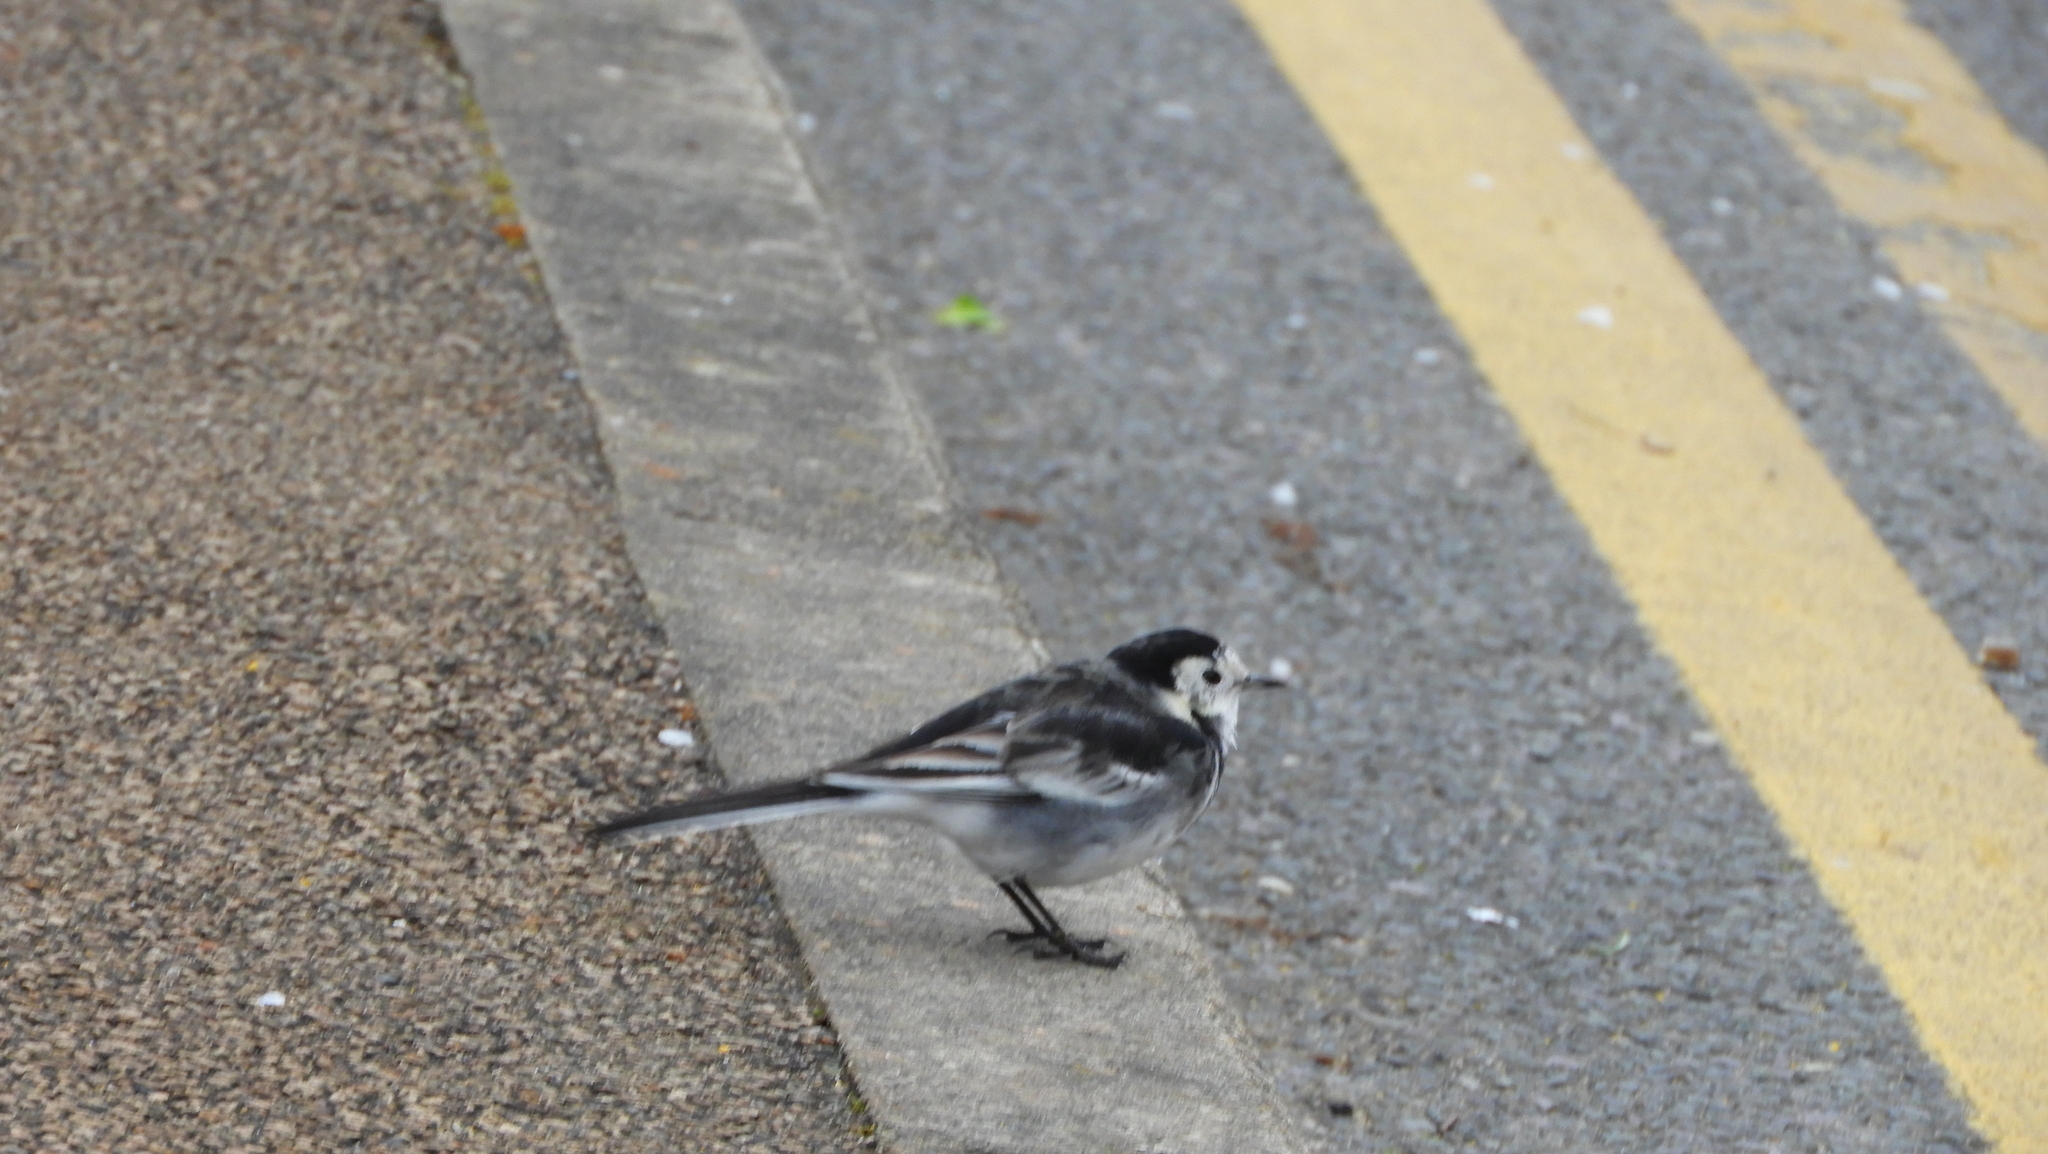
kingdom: Animalia
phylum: Chordata
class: Aves
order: Passeriformes
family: Motacillidae
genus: Motacilla
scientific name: Motacilla alba
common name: White wagtail
